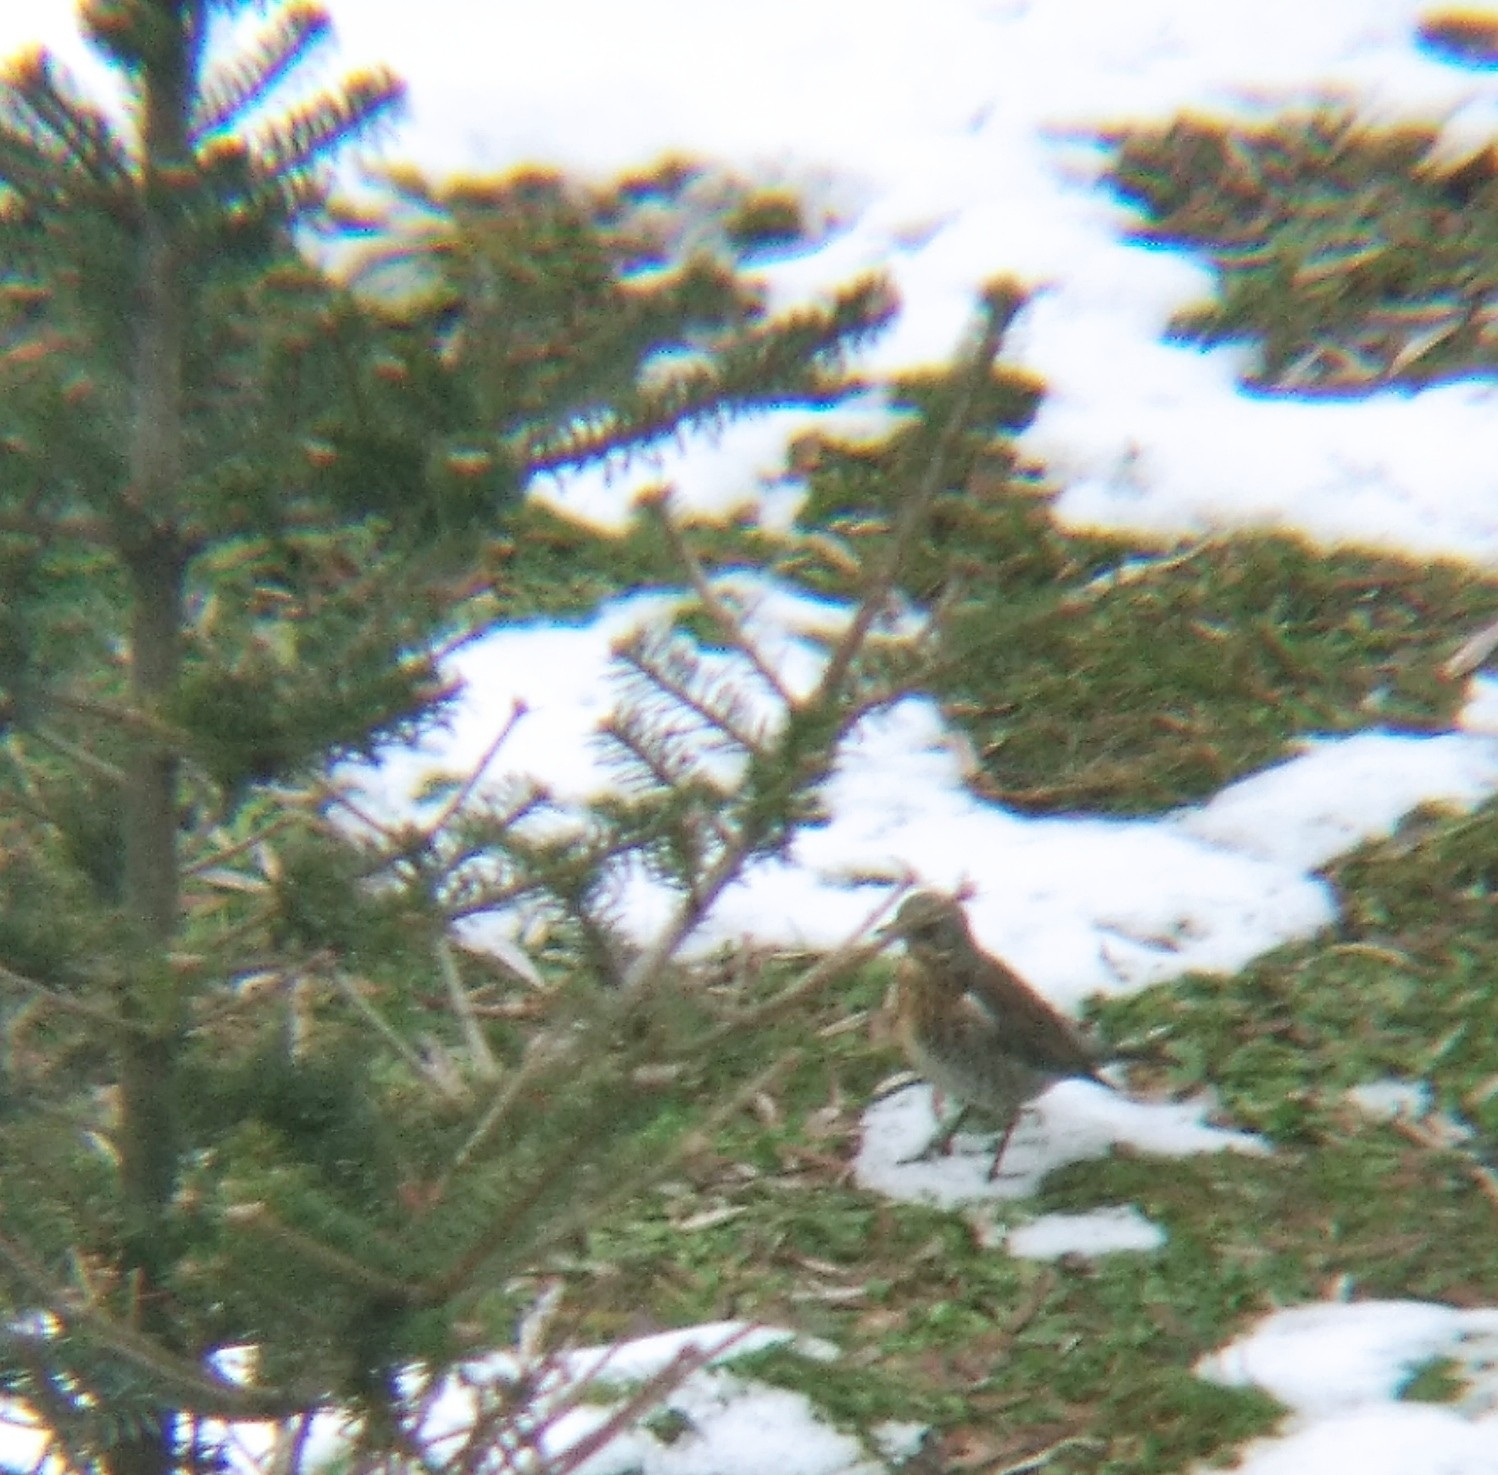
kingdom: Animalia
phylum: Chordata
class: Aves
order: Passeriformes
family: Turdidae
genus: Turdus
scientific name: Turdus pilaris
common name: Fieldfare
